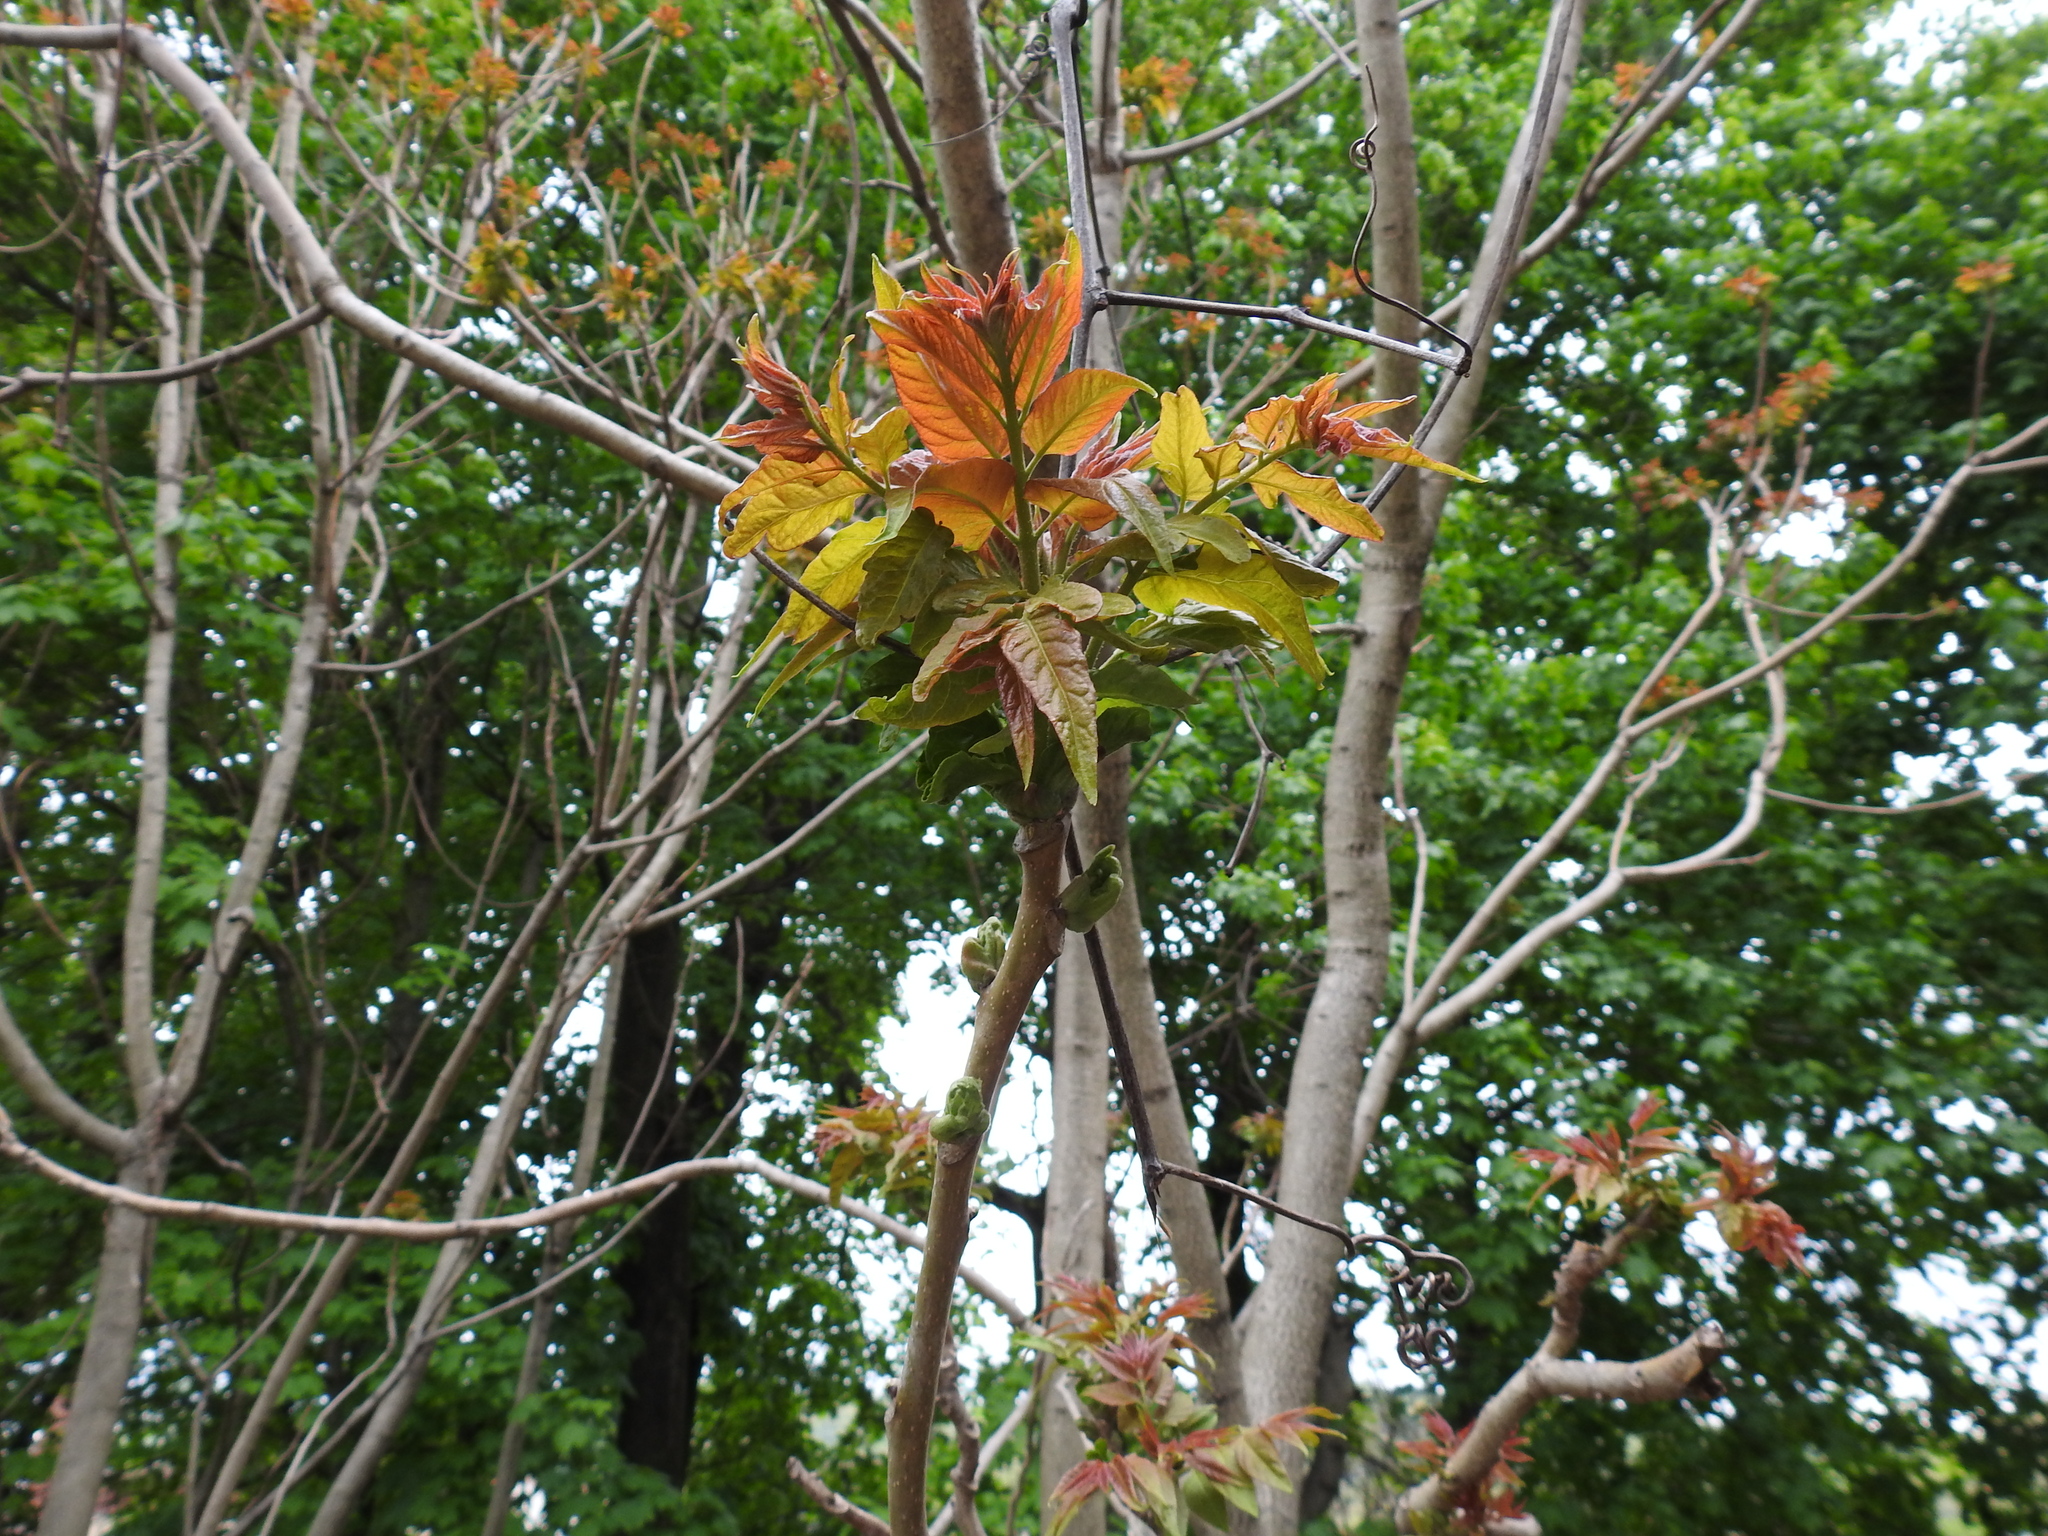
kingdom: Plantae
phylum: Tracheophyta
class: Magnoliopsida
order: Sapindales
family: Simaroubaceae
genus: Ailanthus
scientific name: Ailanthus altissima
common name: Tree-of-heaven
